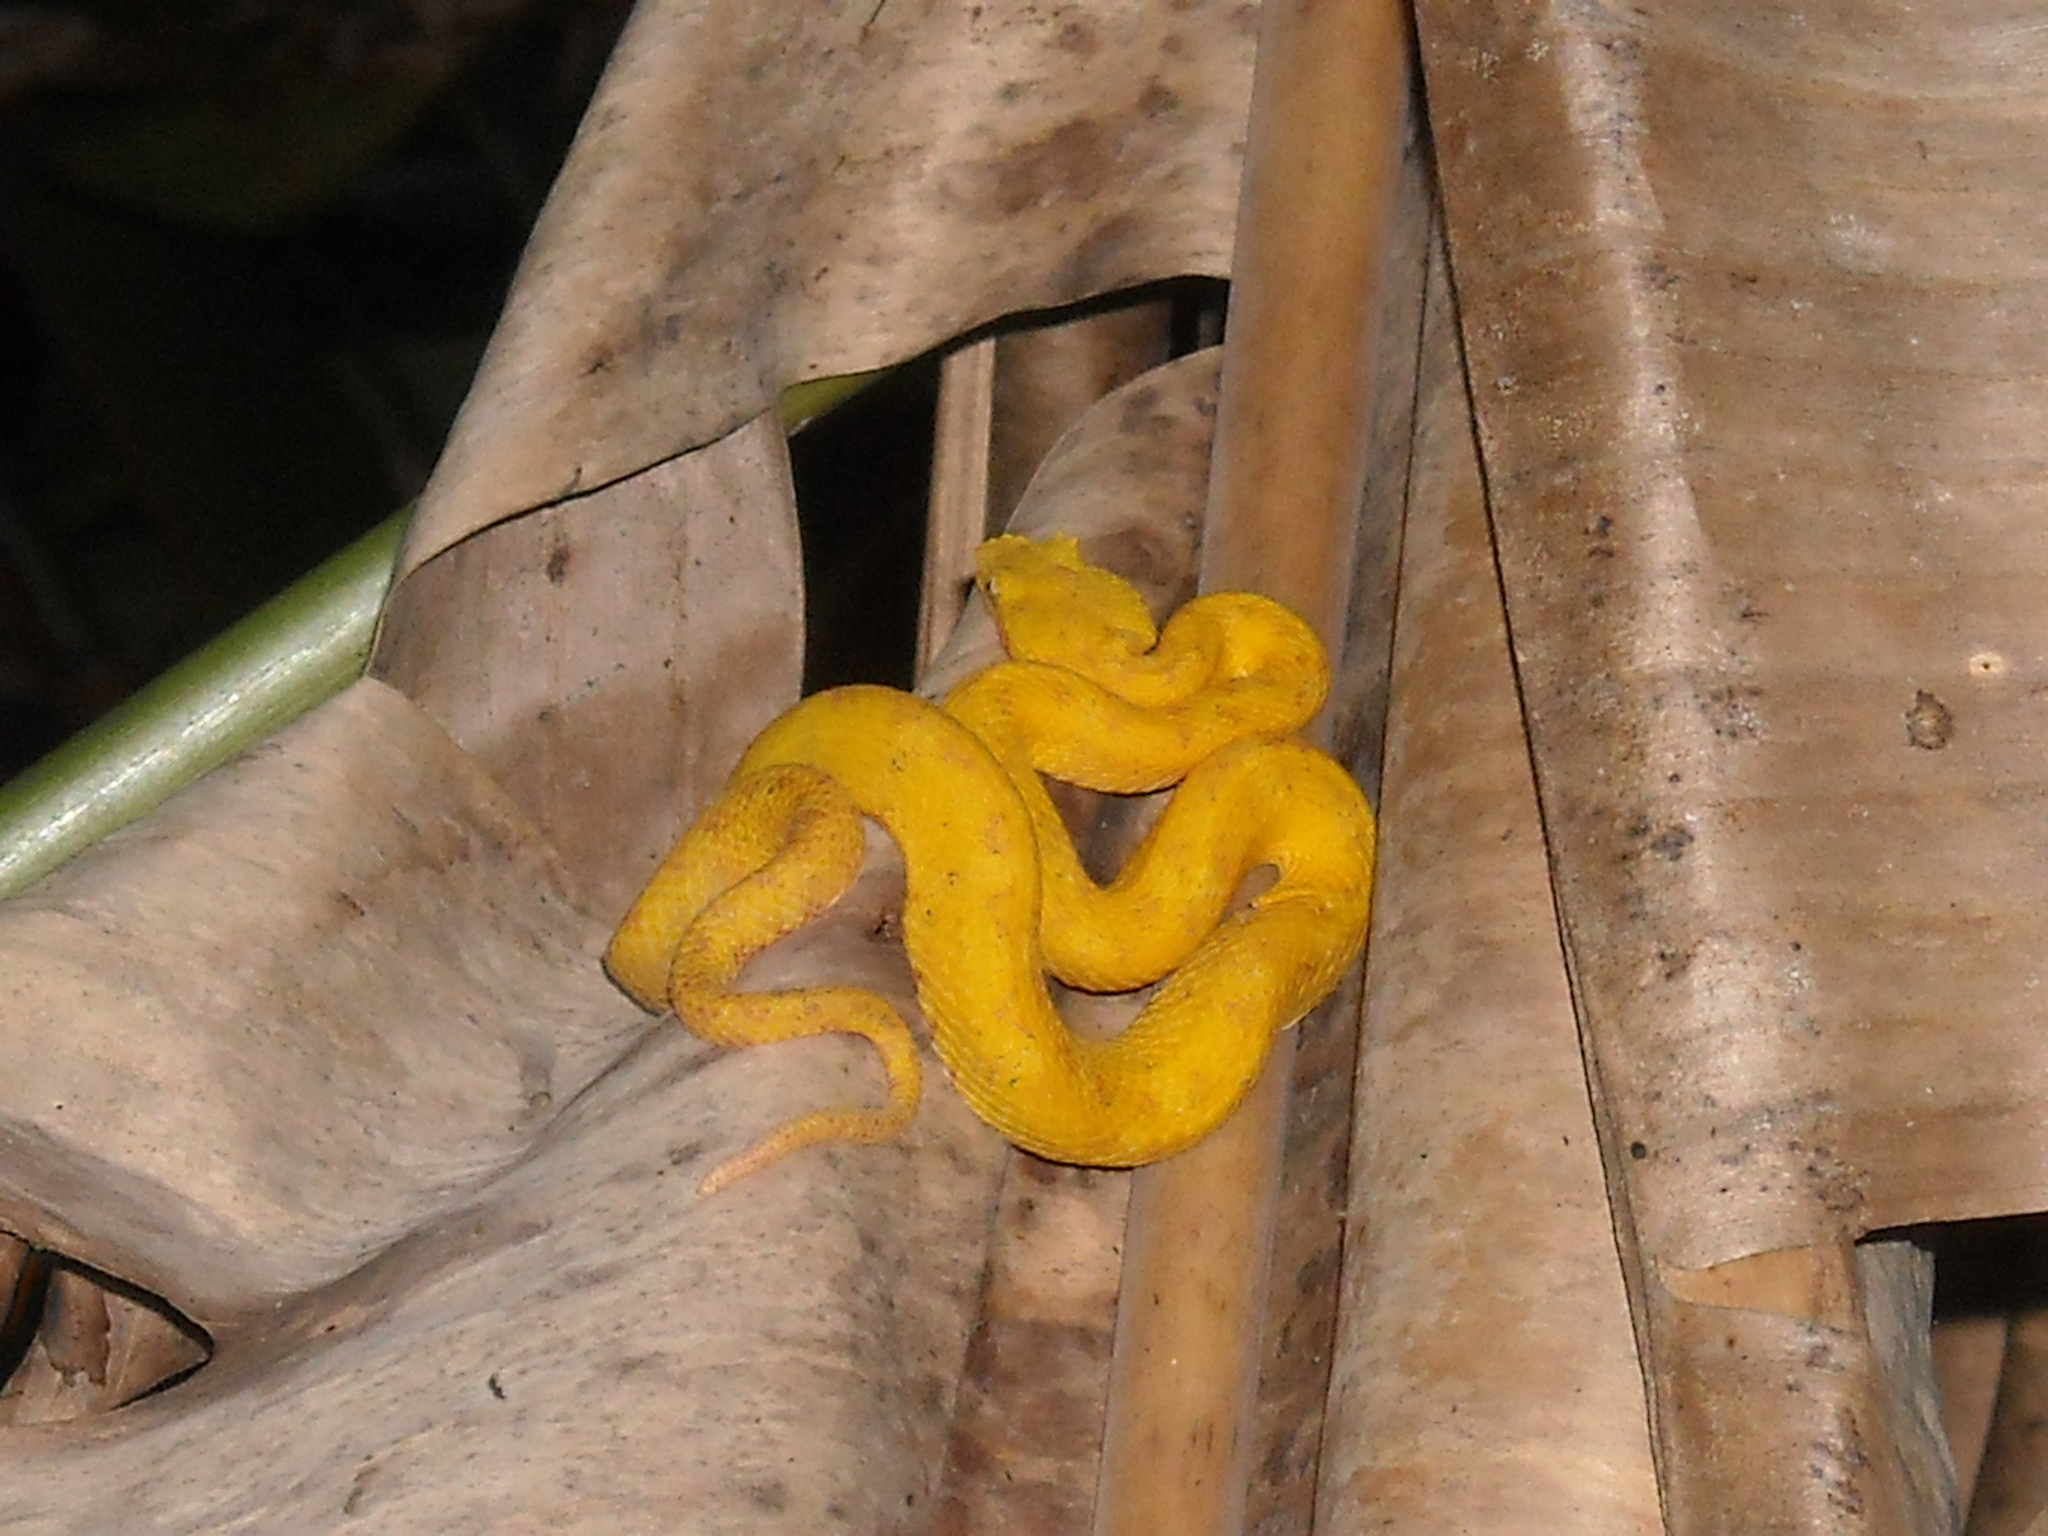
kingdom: Animalia
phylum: Chordata
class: Squamata
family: Viperidae
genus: Bothriechis
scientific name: Bothriechis schlegelii
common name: Eyelash viper
